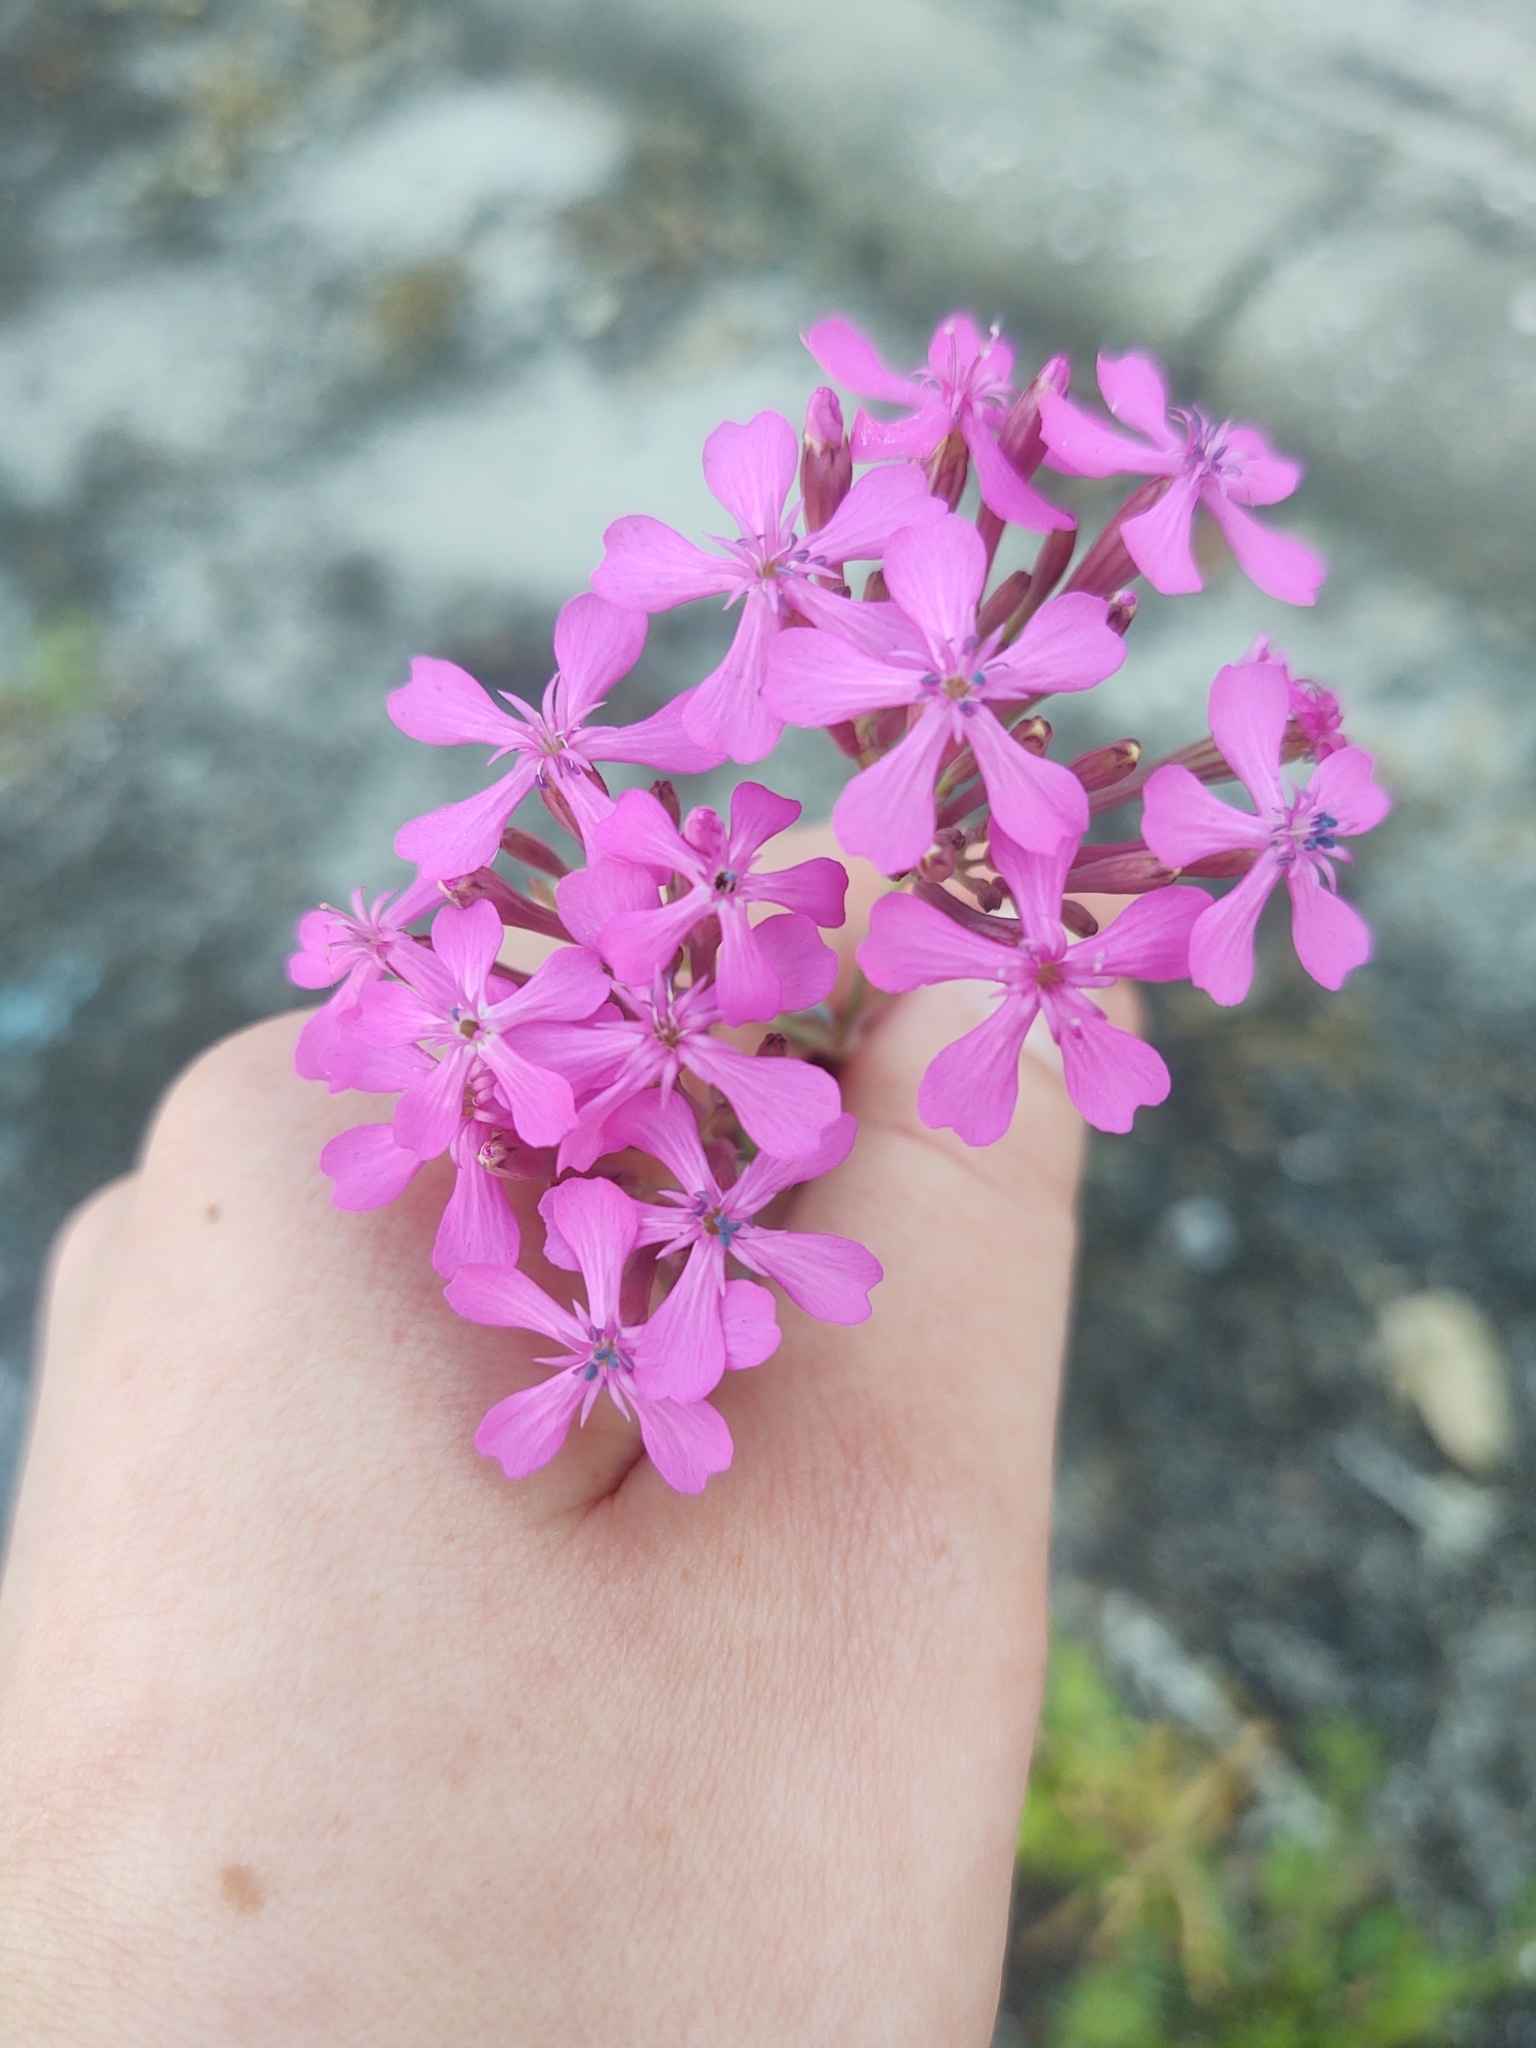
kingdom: Plantae
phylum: Tracheophyta
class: Magnoliopsida
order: Caryophyllales
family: Caryophyllaceae
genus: Atocion
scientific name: Atocion armeria
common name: Sweet william catchfly
